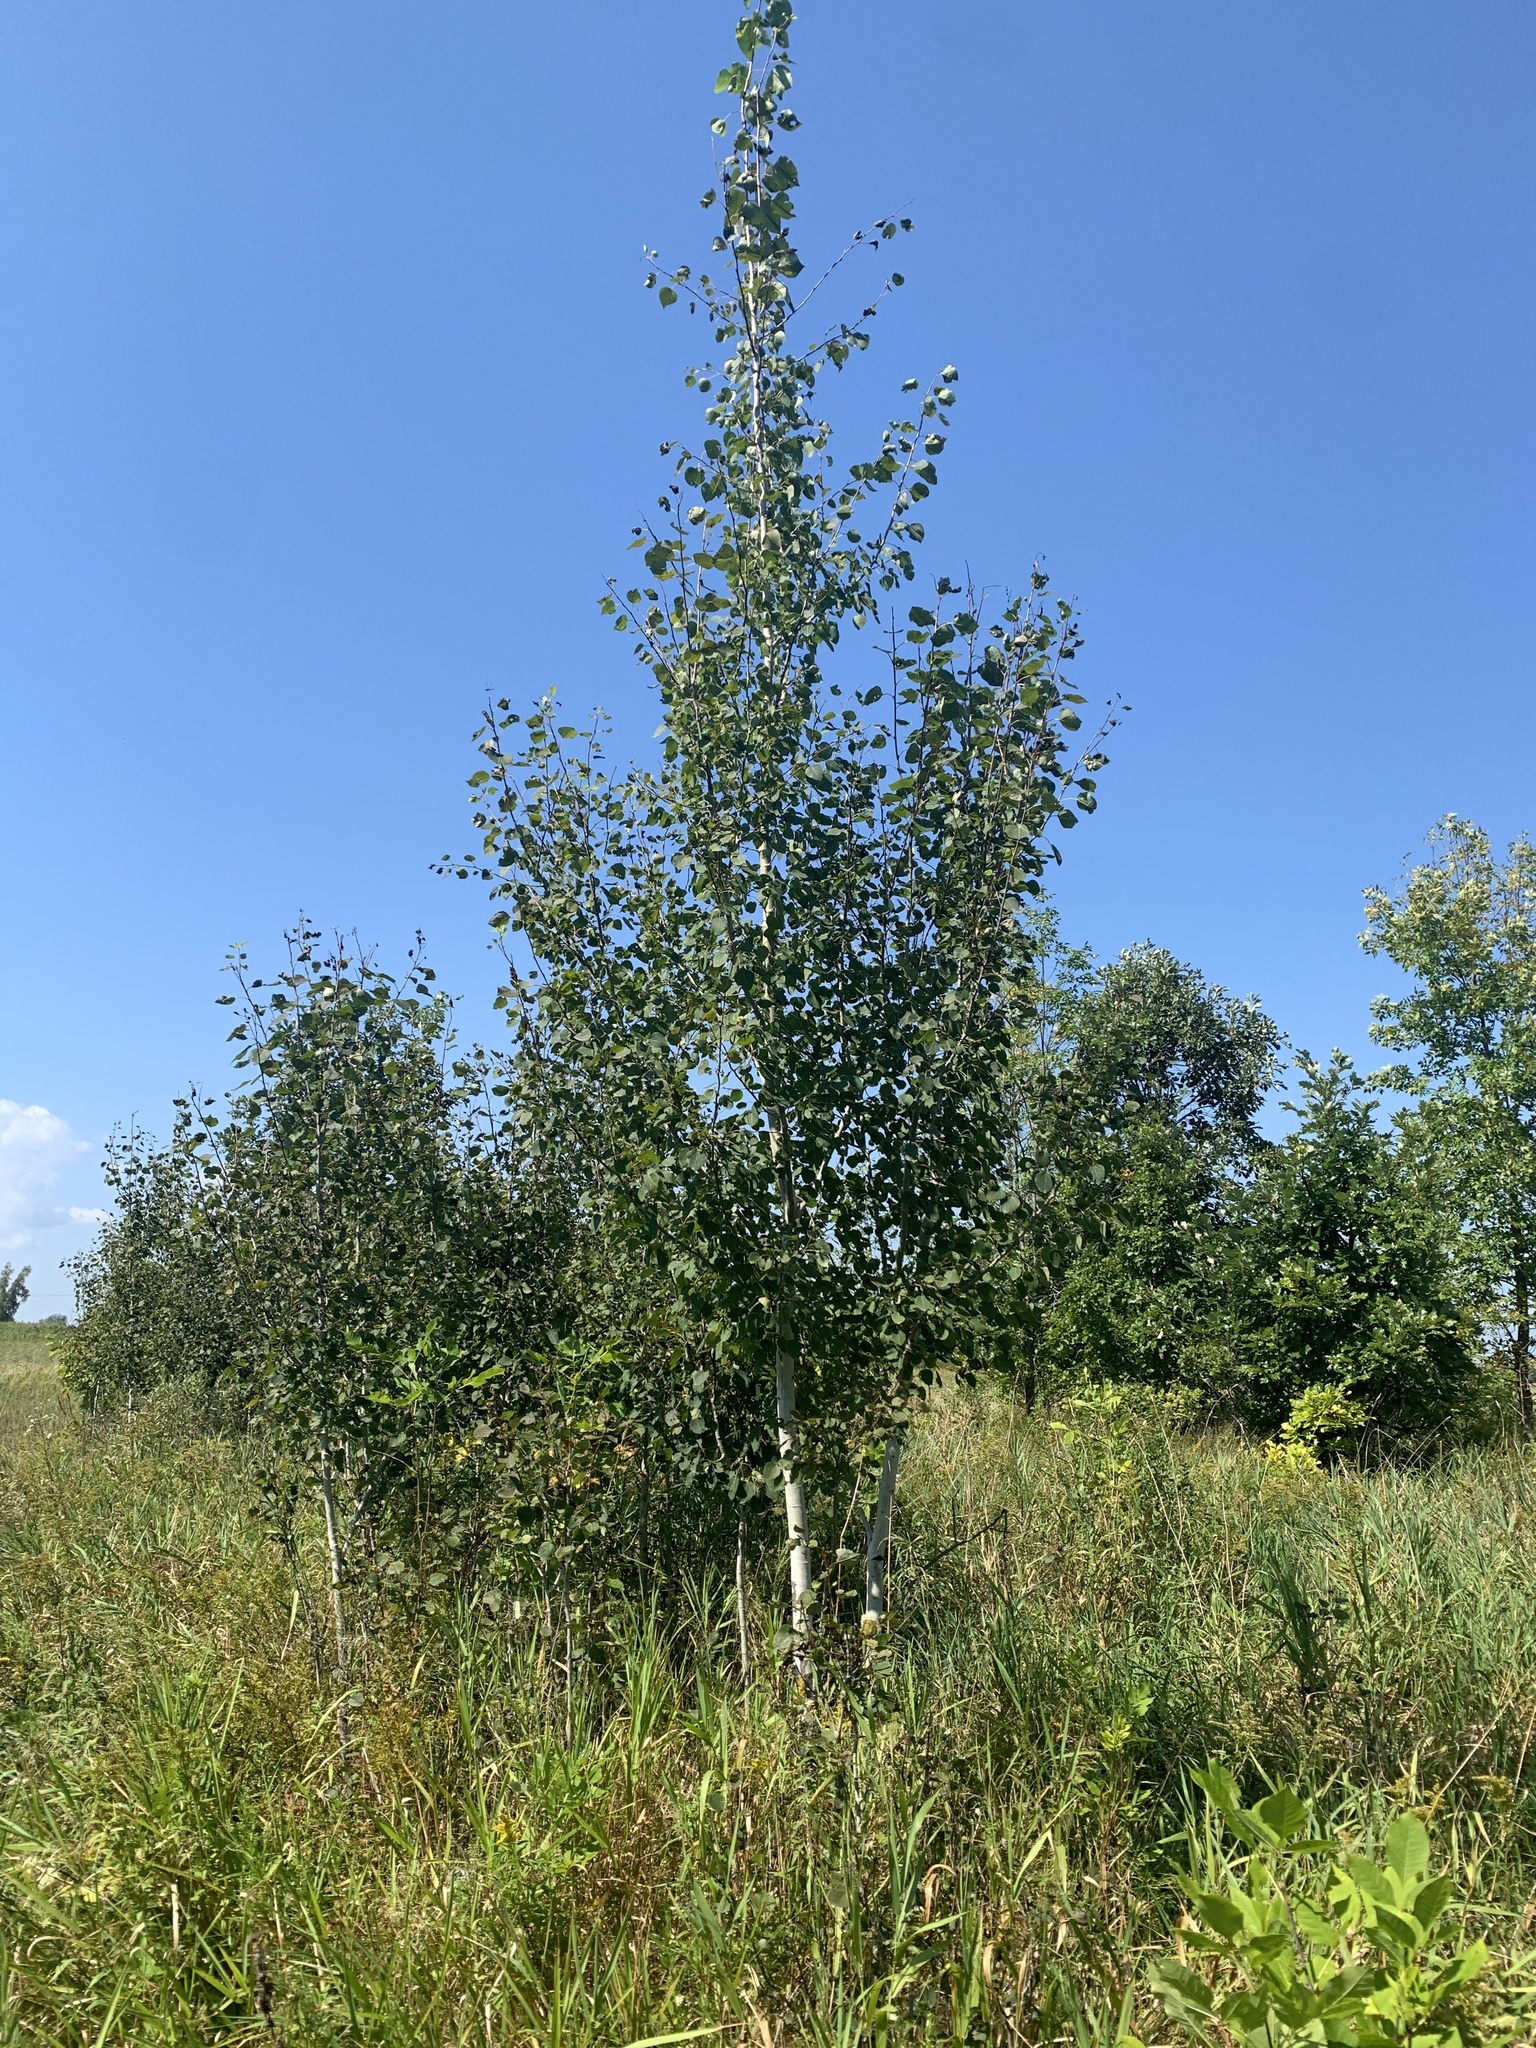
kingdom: Plantae
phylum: Tracheophyta
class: Magnoliopsida
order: Malpighiales
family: Salicaceae
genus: Populus
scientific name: Populus tremuloides
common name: Quaking aspen
